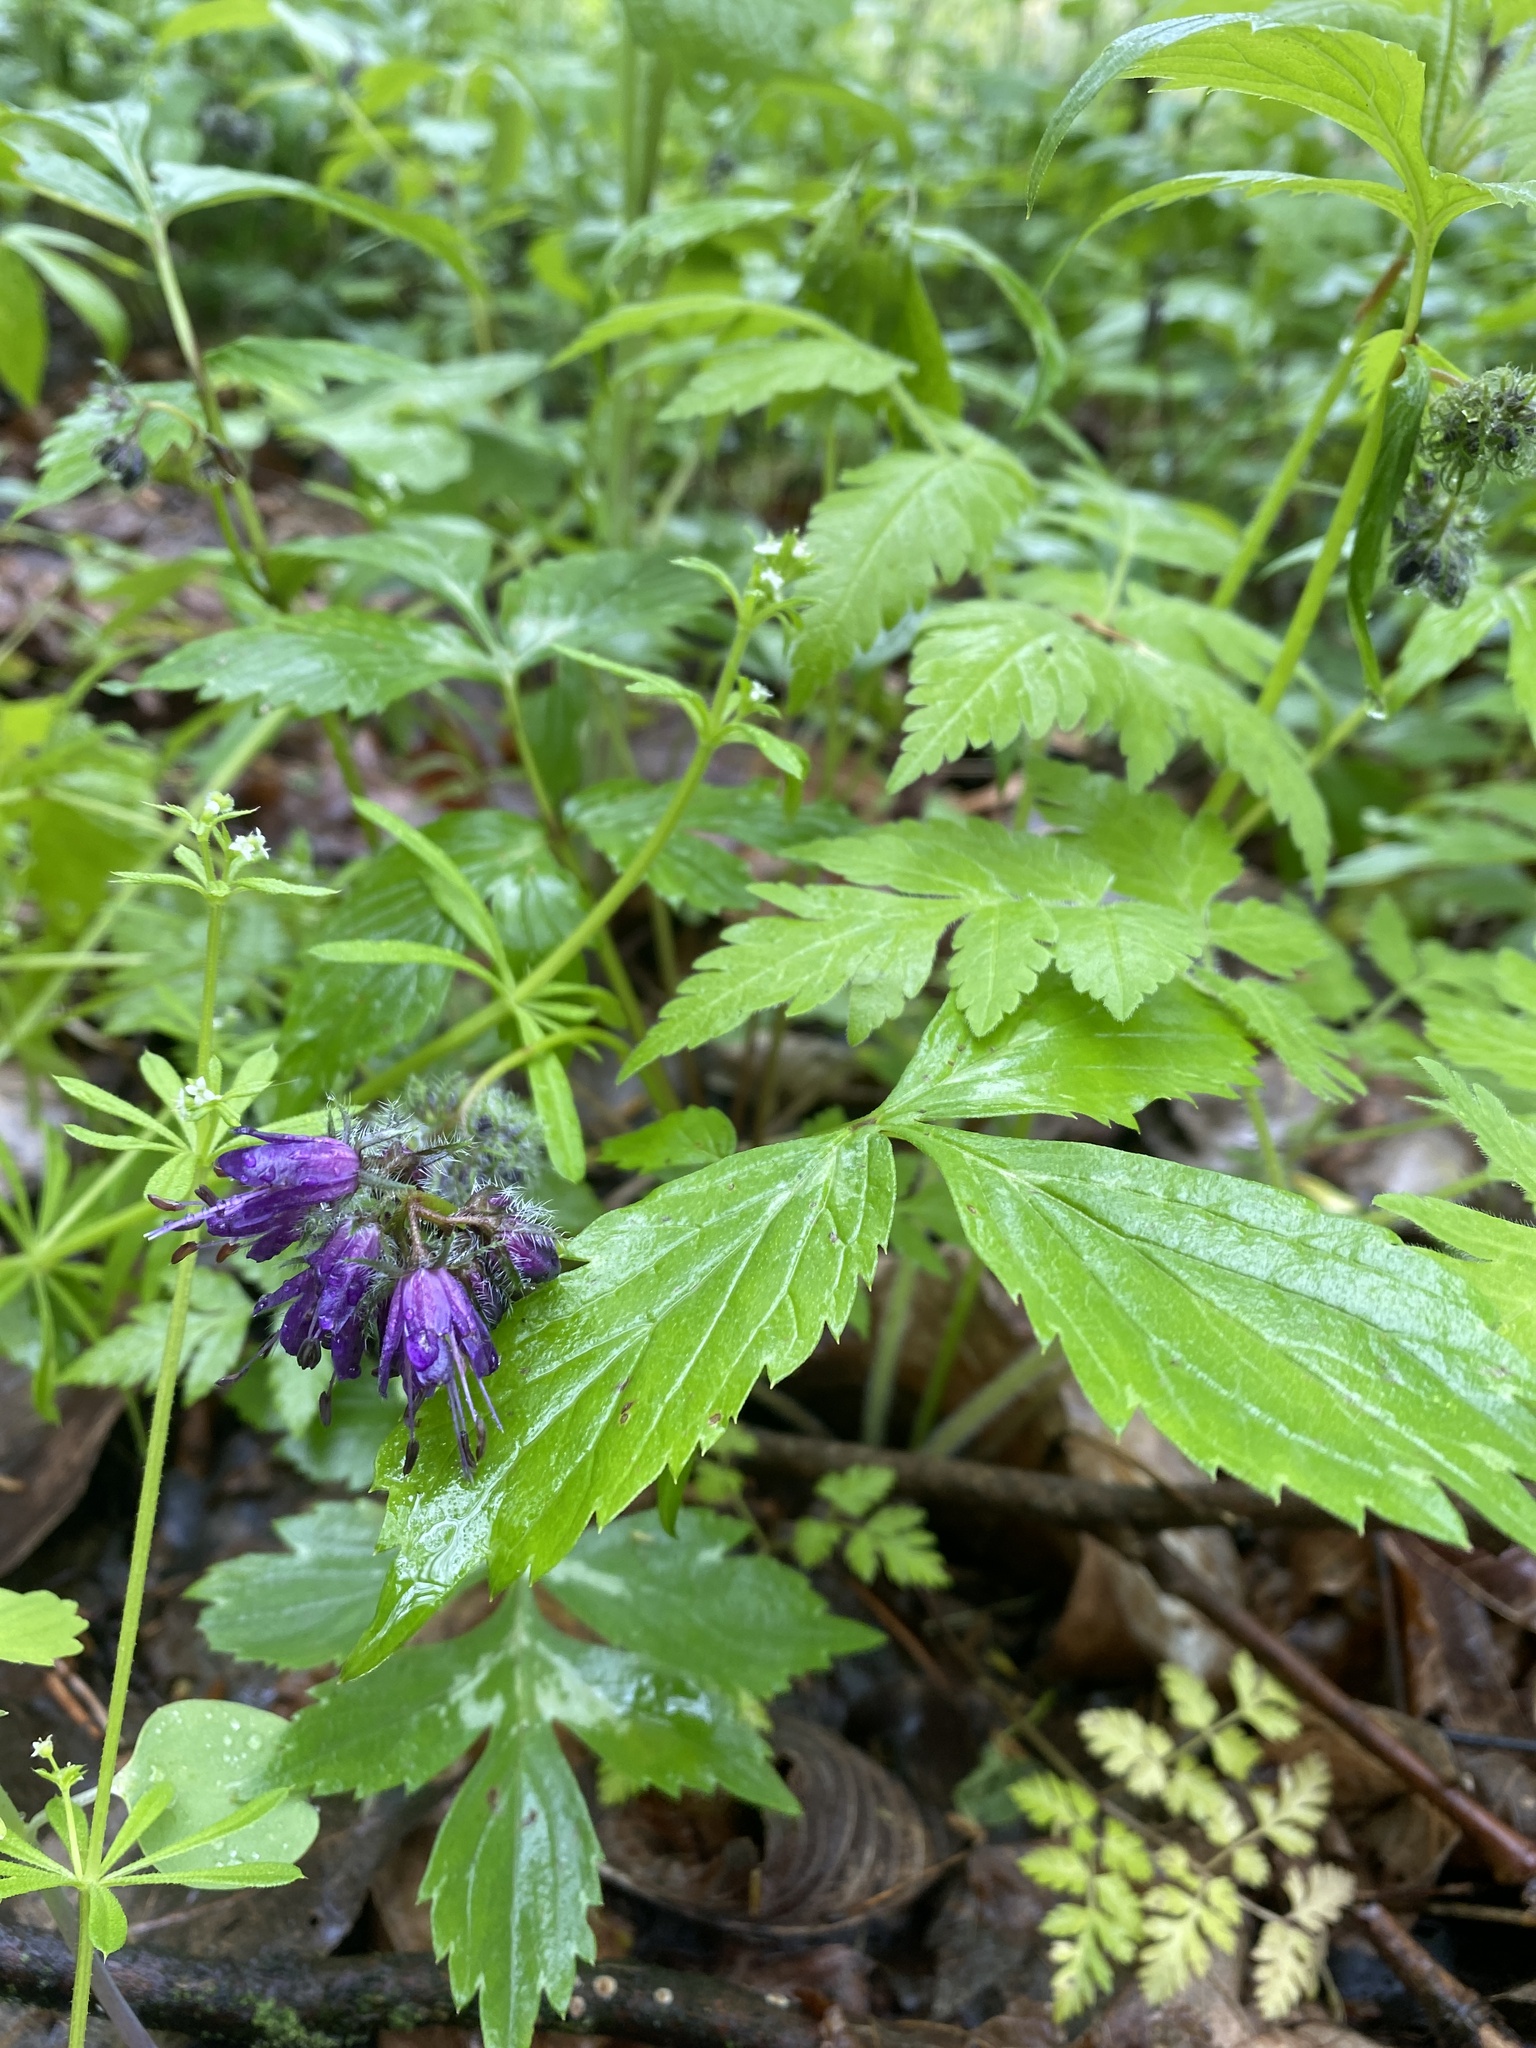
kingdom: Plantae
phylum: Tracheophyta
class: Magnoliopsida
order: Boraginales
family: Hydrophyllaceae
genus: Hydrophyllum
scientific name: Hydrophyllum virginianum
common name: Virginia waterleaf
